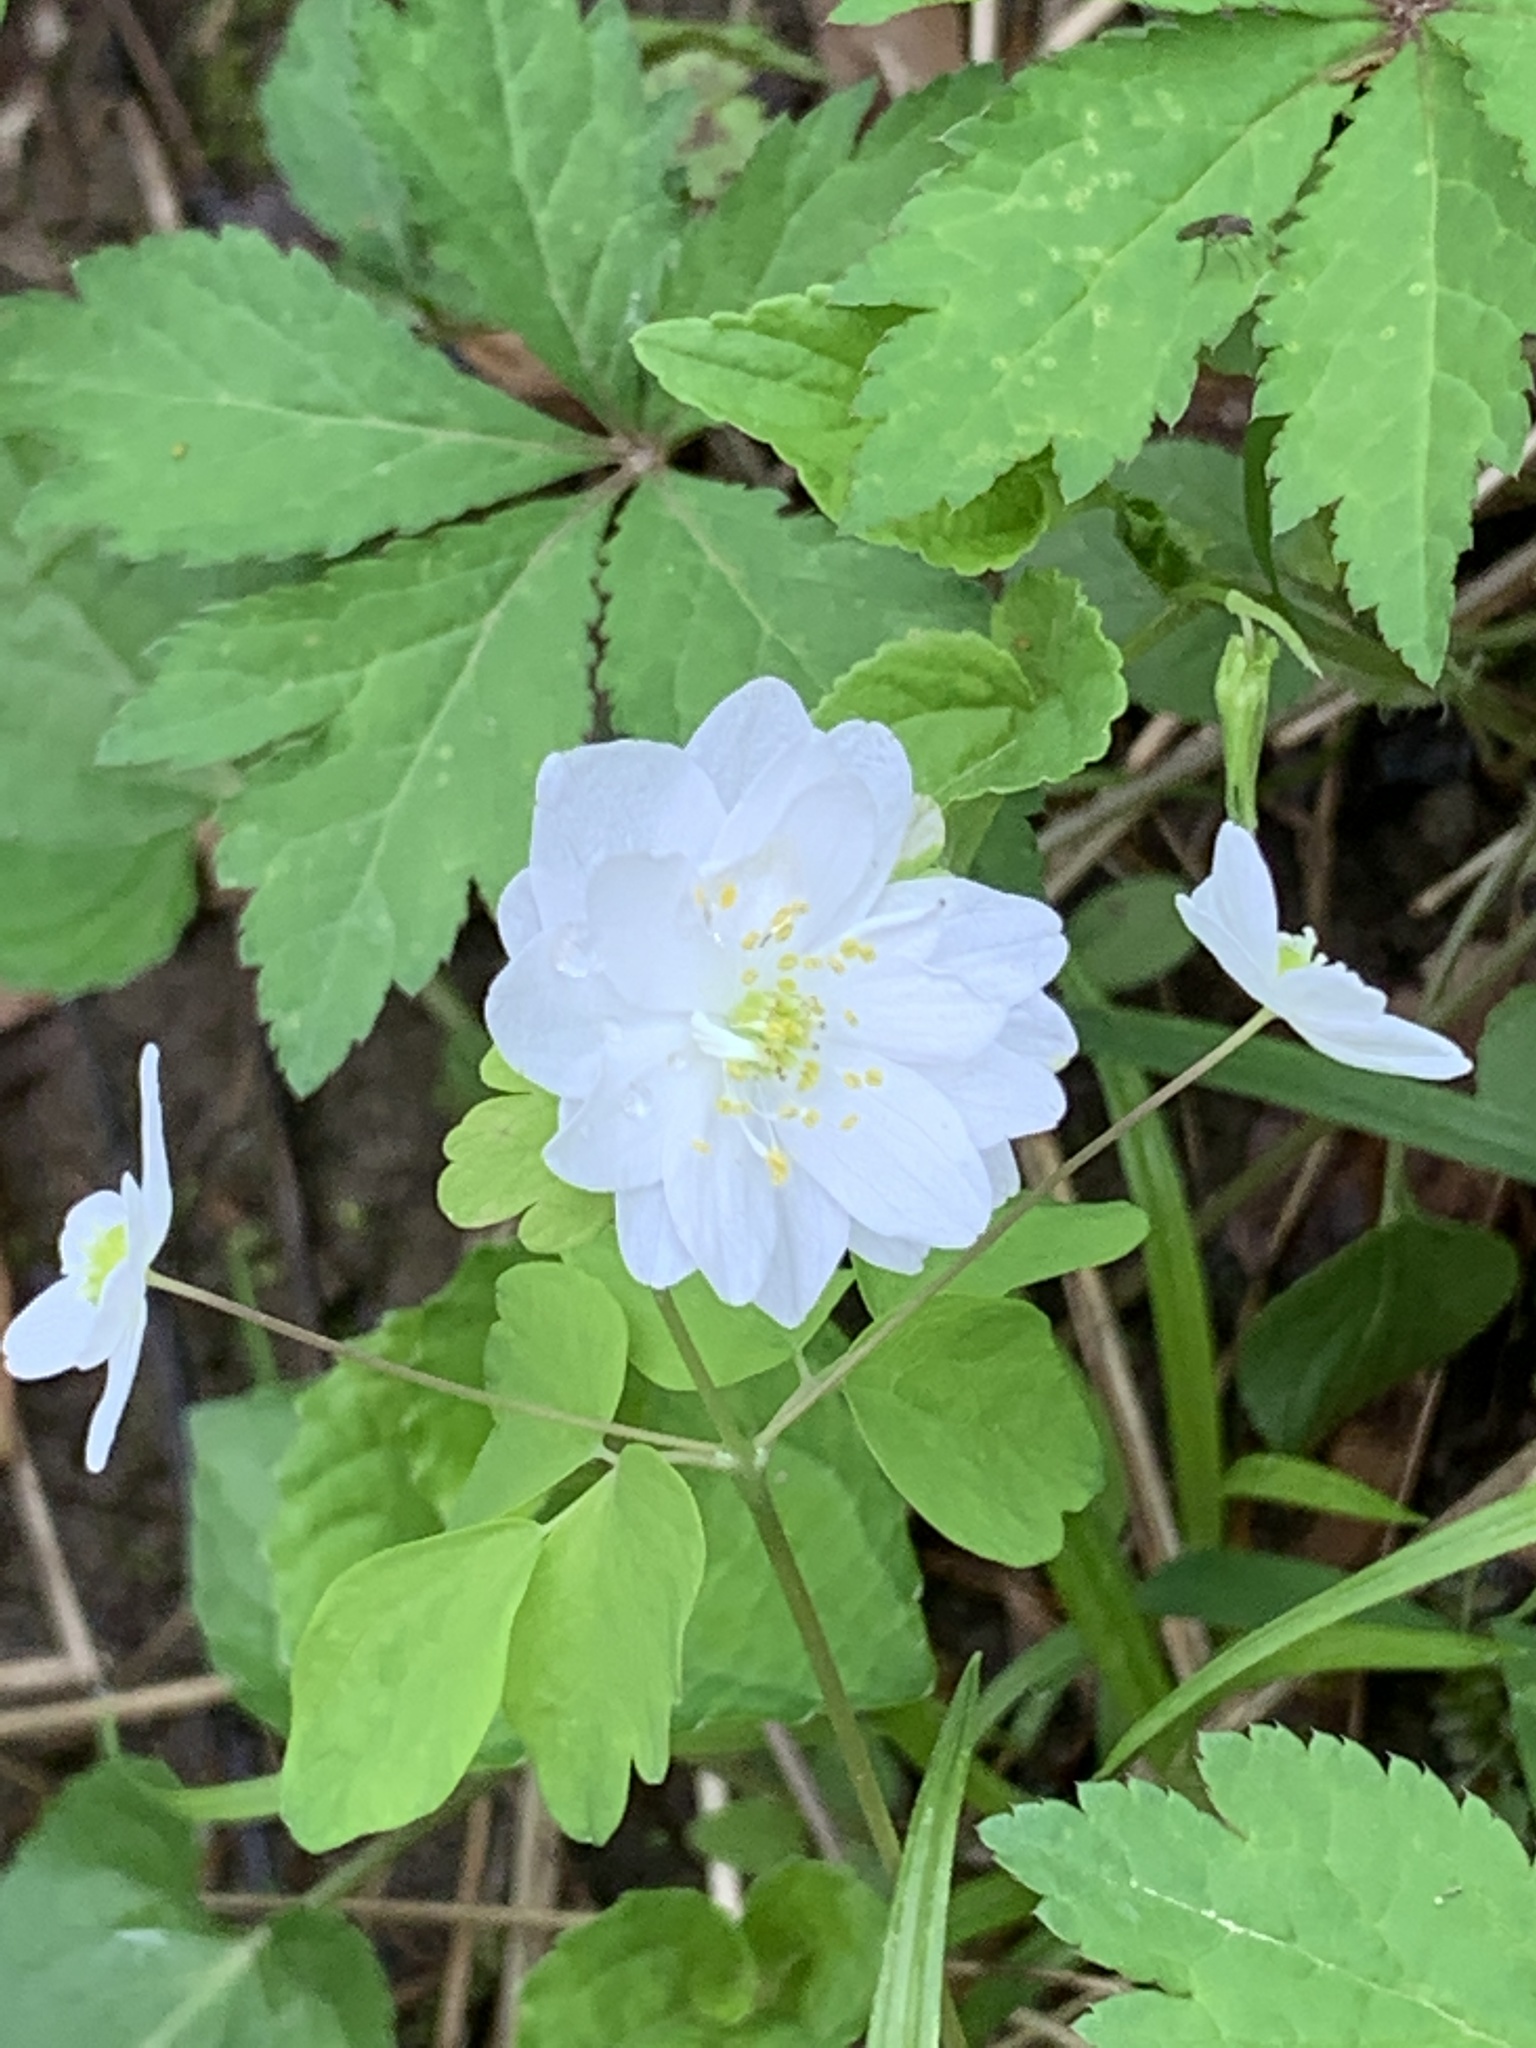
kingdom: Plantae
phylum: Tracheophyta
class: Magnoliopsida
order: Ranunculales
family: Ranunculaceae
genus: Thalictrum
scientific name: Thalictrum thalictroides
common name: Rue-anemone
